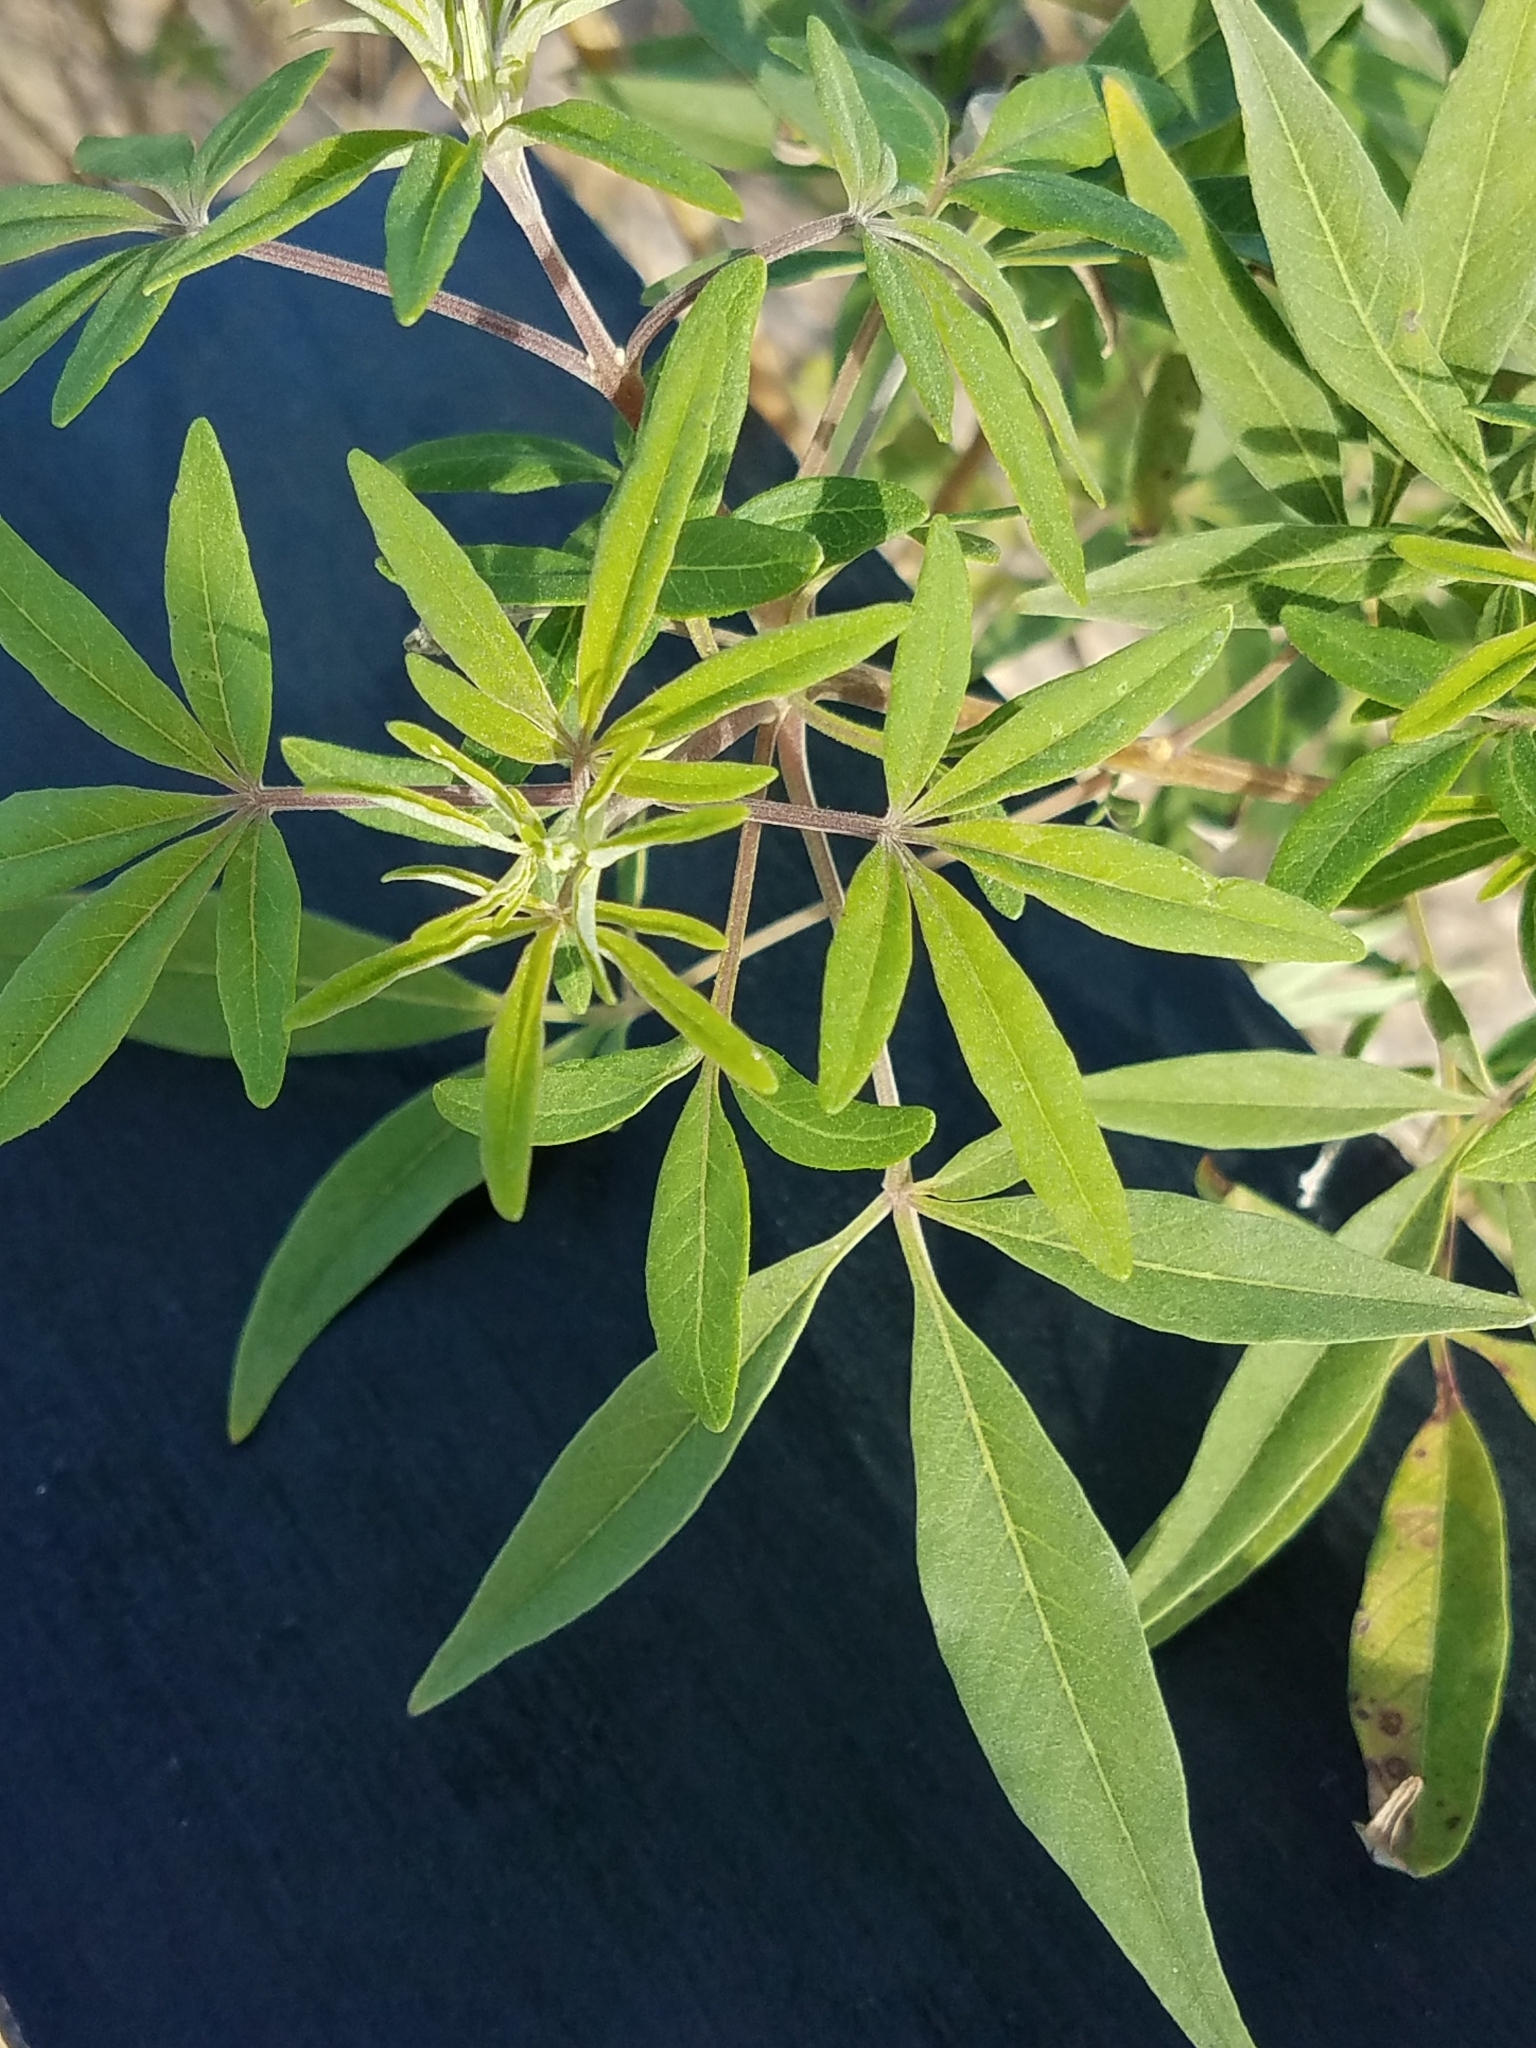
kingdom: Plantae
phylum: Tracheophyta
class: Magnoliopsida
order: Lamiales
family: Lamiaceae
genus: Vitex
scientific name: Vitex agnus-castus
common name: Chasteberry
